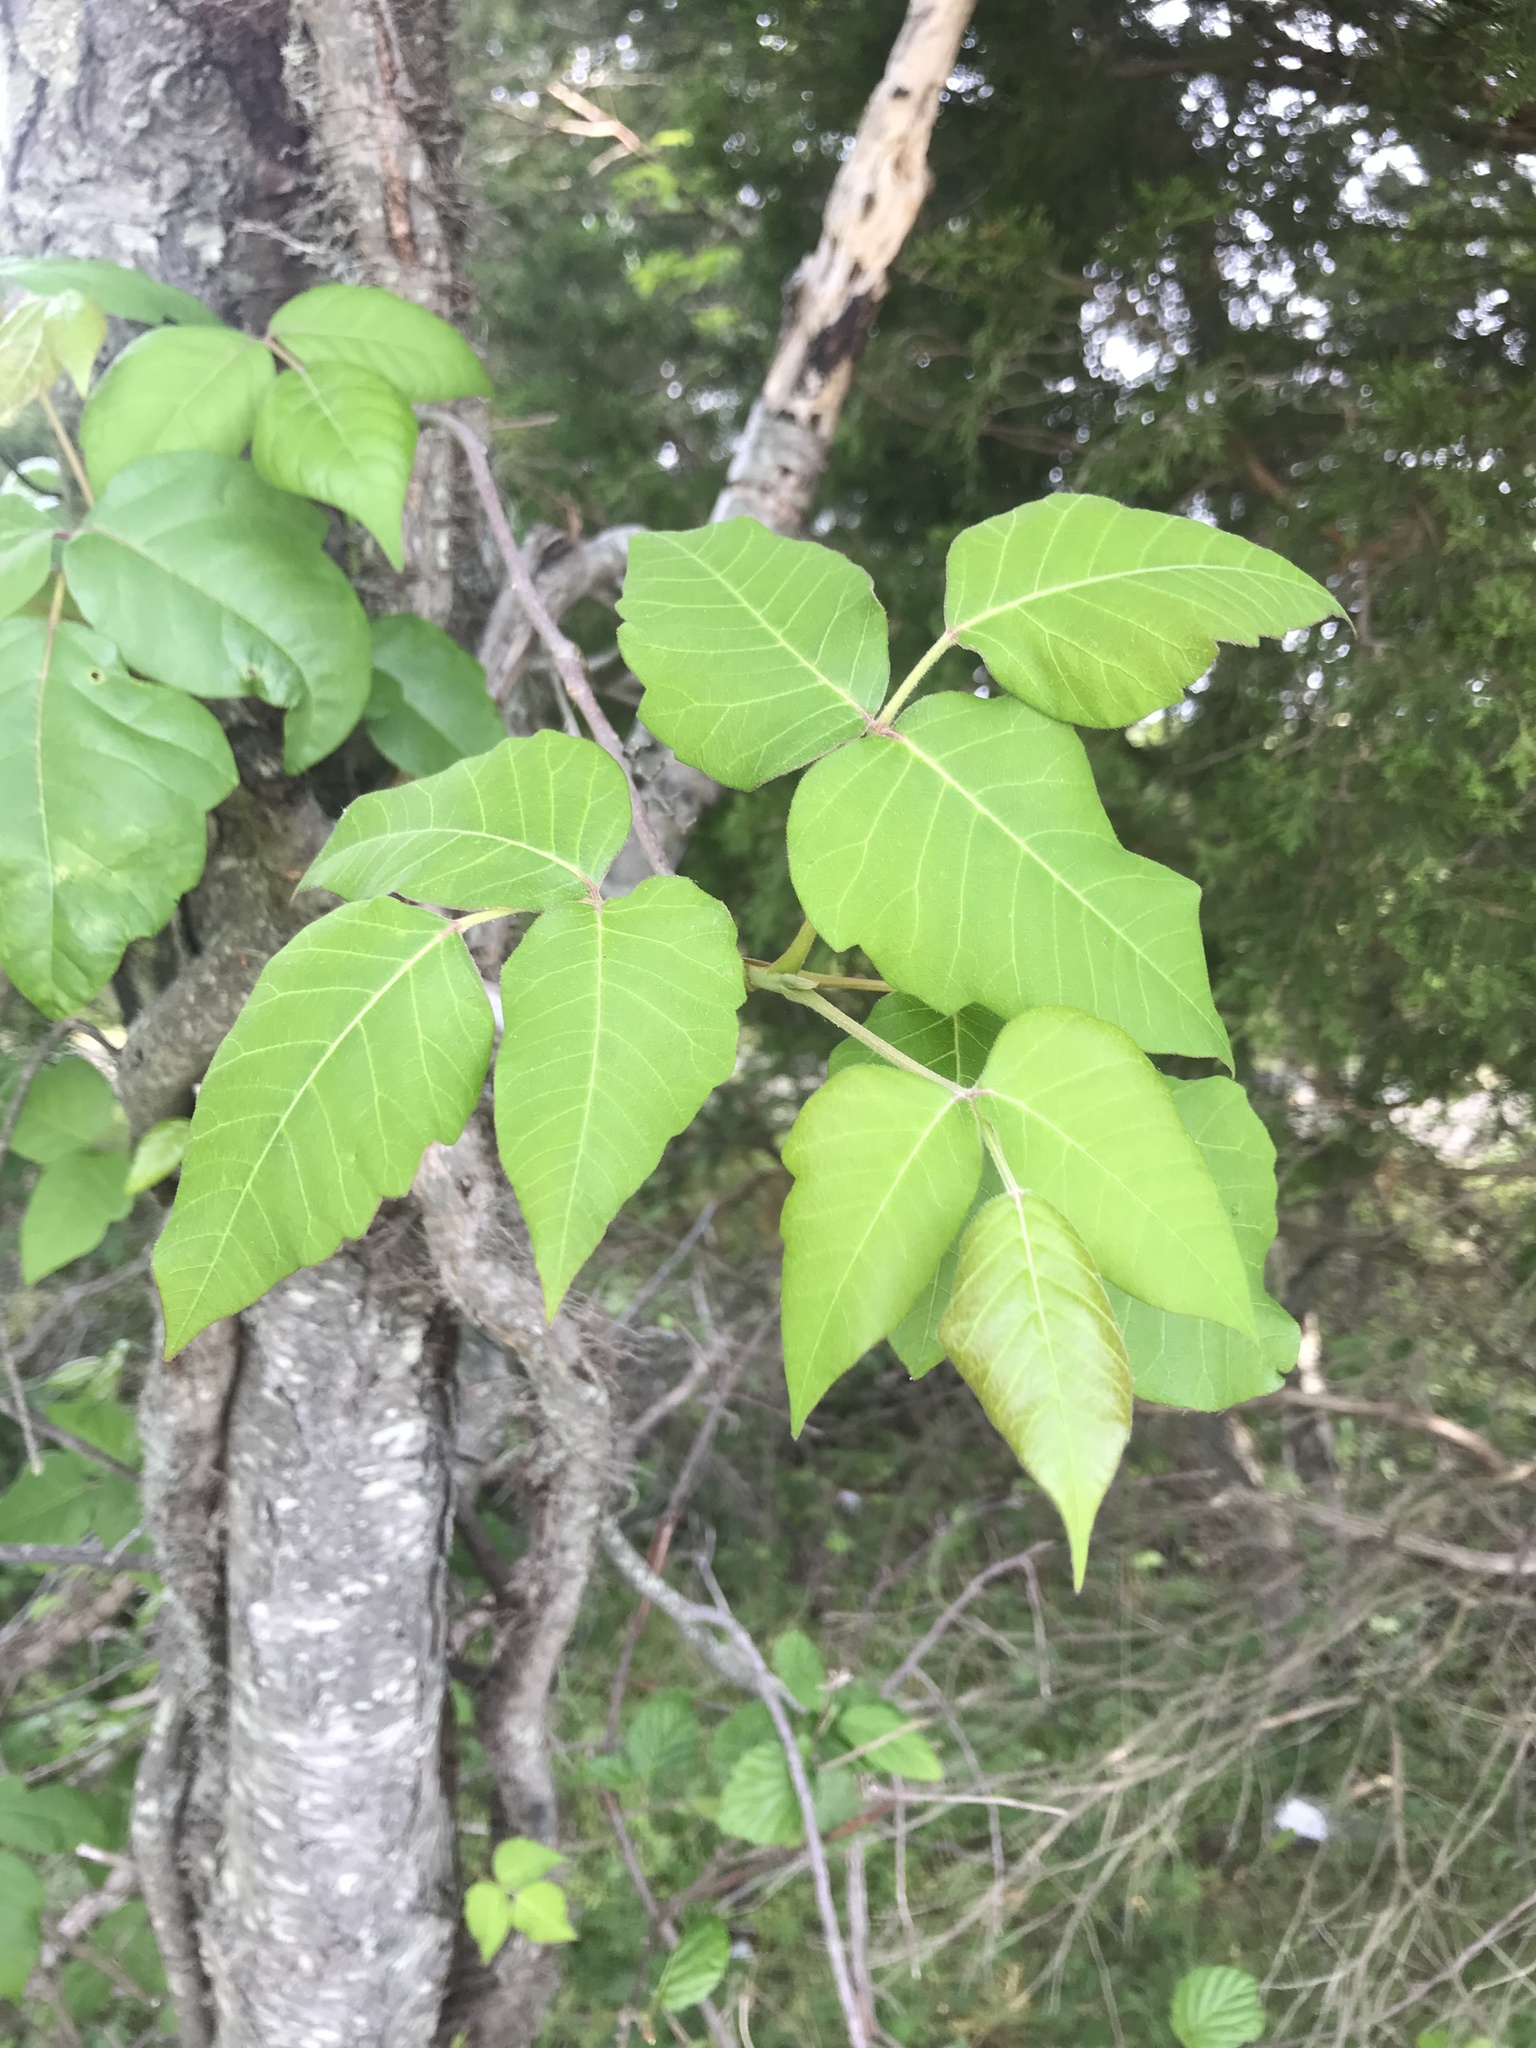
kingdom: Plantae
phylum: Tracheophyta
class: Magnoliopsida
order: Sapindales
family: Anacardiaceae
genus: Toxicodendron
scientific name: Toxicodendron radicans
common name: Poison ivy
